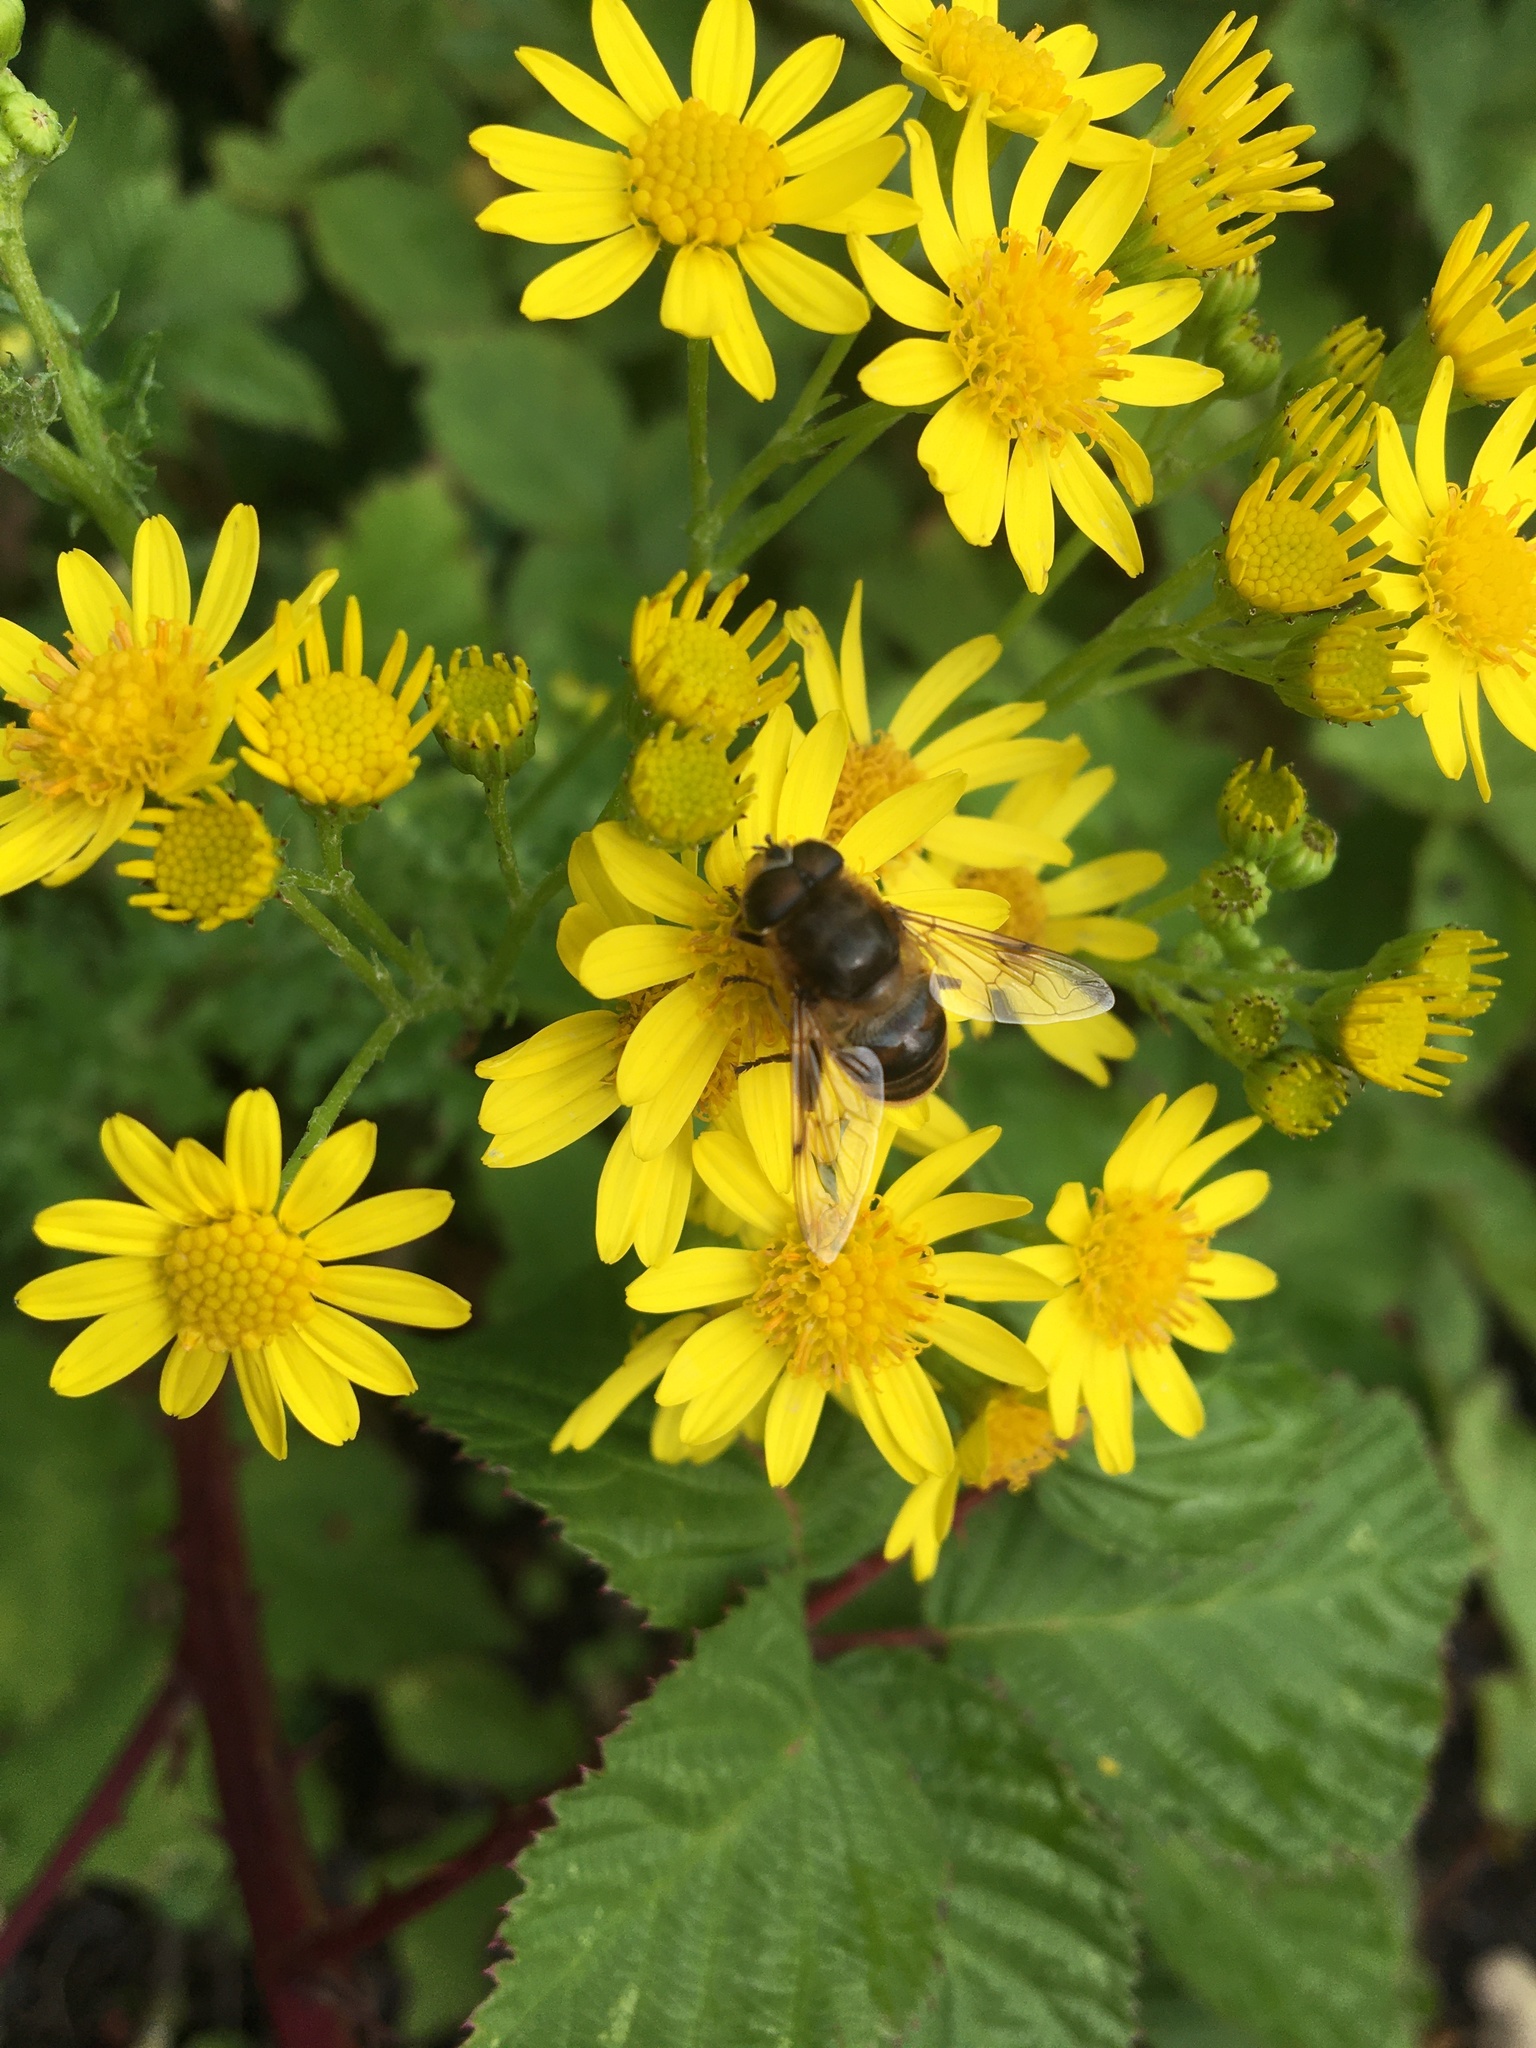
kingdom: Animalia
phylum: Arthropoda
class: Insecta
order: Diptera
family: Syrphidae
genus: Eristalis
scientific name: Eristalis tenax
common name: Drone fly
